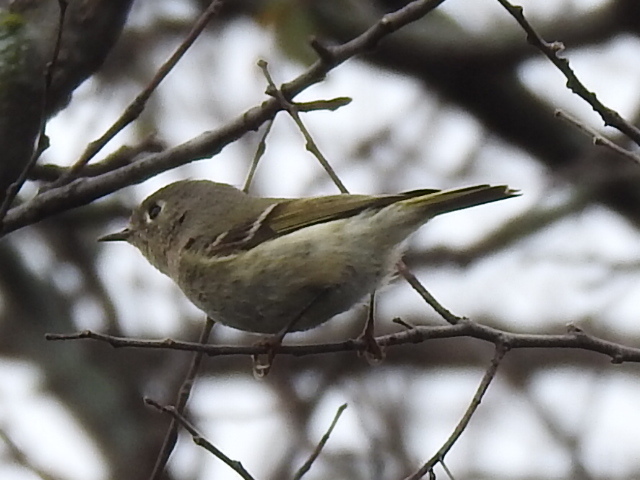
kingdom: Animalia
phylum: Chordata
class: Aves
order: Passeriformes
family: Regulidae
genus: Regulus
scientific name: Regulus calendula
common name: Ruby-crowned kinglet
